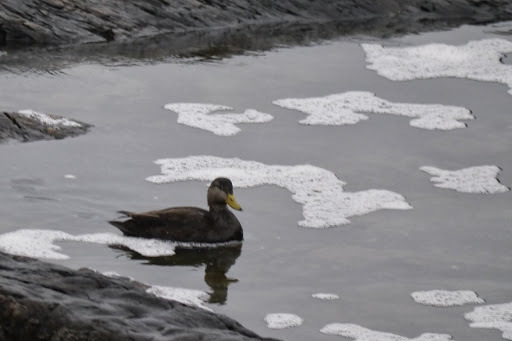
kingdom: Animalia
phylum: Chordata
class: Aves
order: Anseriformes
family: Anatidae
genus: Anas
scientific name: Anas rubripes
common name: American black duck
